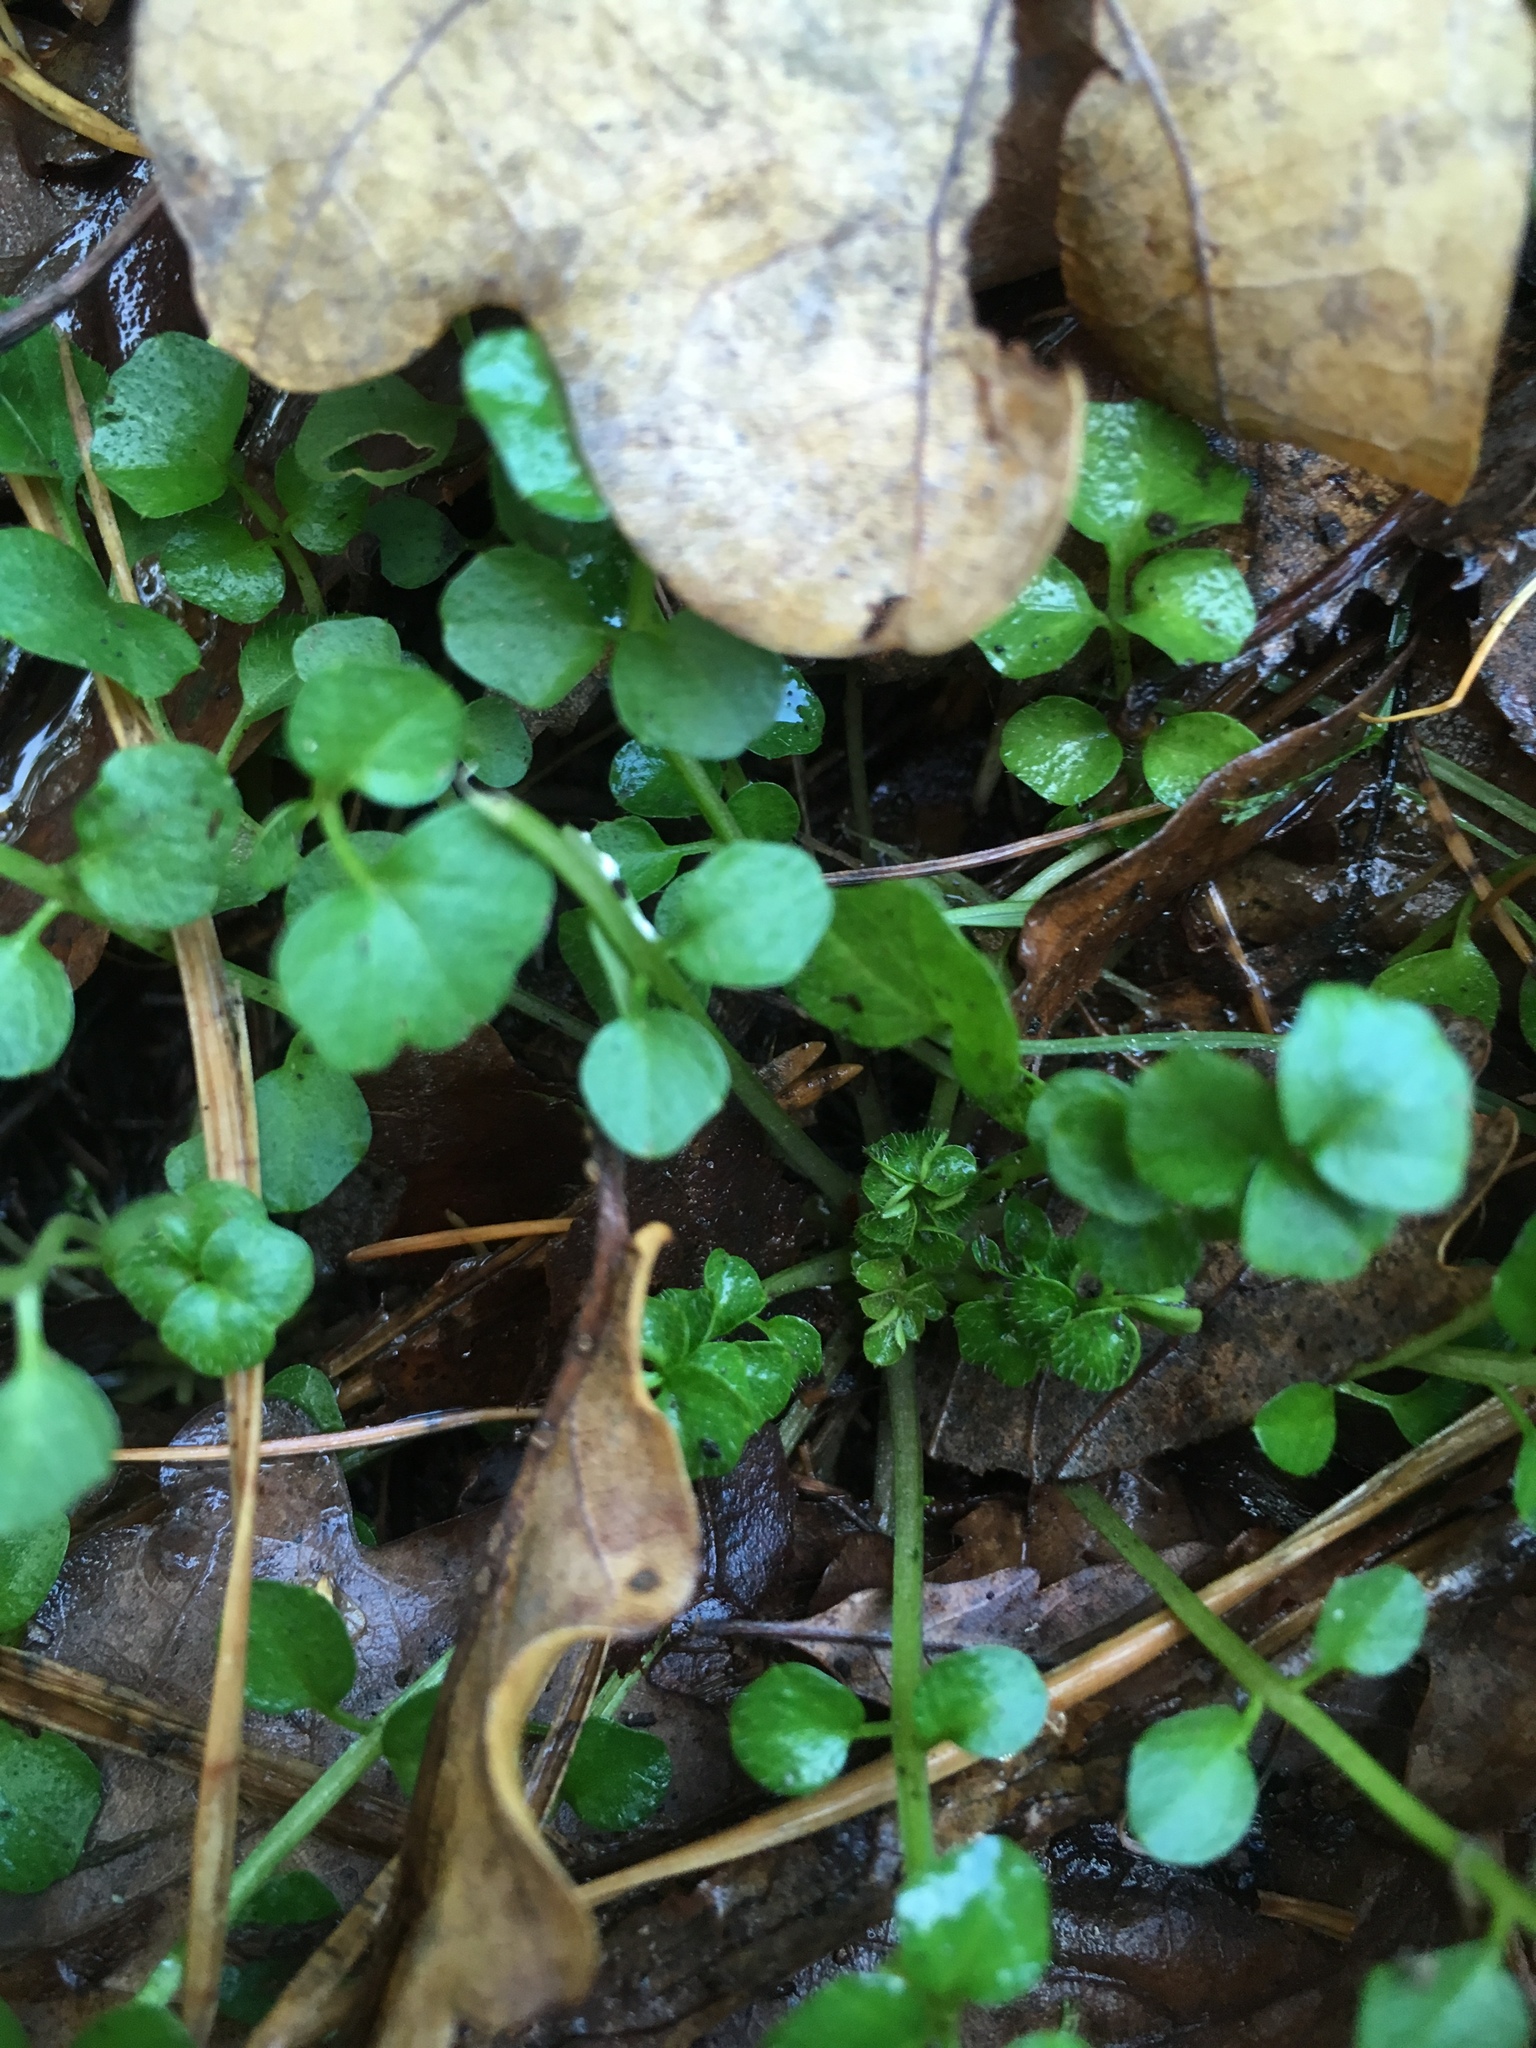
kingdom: Plantae
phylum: Tracheophyta
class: Magnoliopsida
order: Brassicales
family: Brassicaceae
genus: Cardamine
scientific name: Cardamine hirsuta
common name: Hairy bittercress
